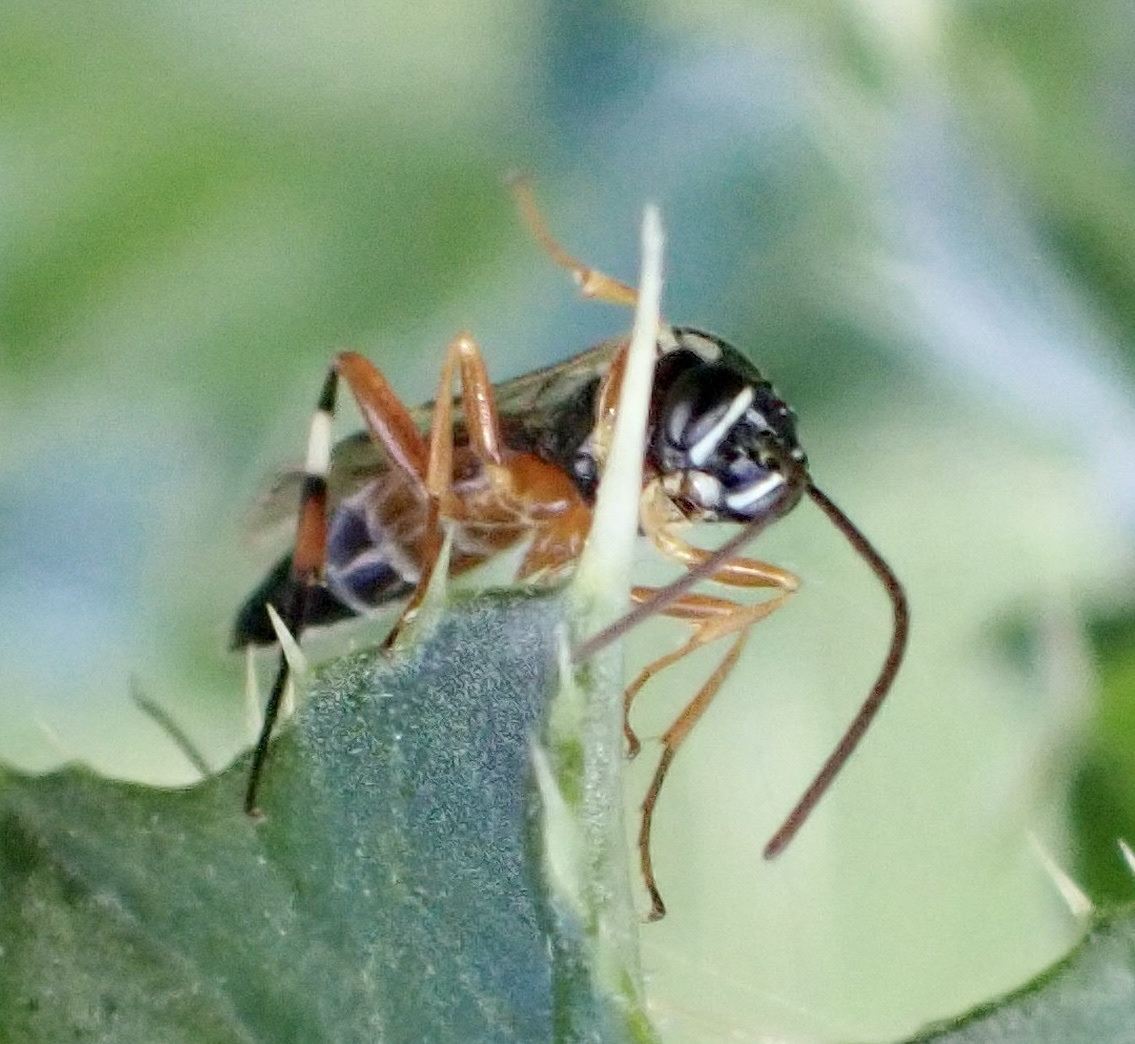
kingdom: Animalia
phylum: Arthropoda
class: Insecta
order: Hymenoptera
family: Ichneumonidae
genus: Diplazon
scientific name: Diplazon laetatorius
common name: Parasitoid wasp
